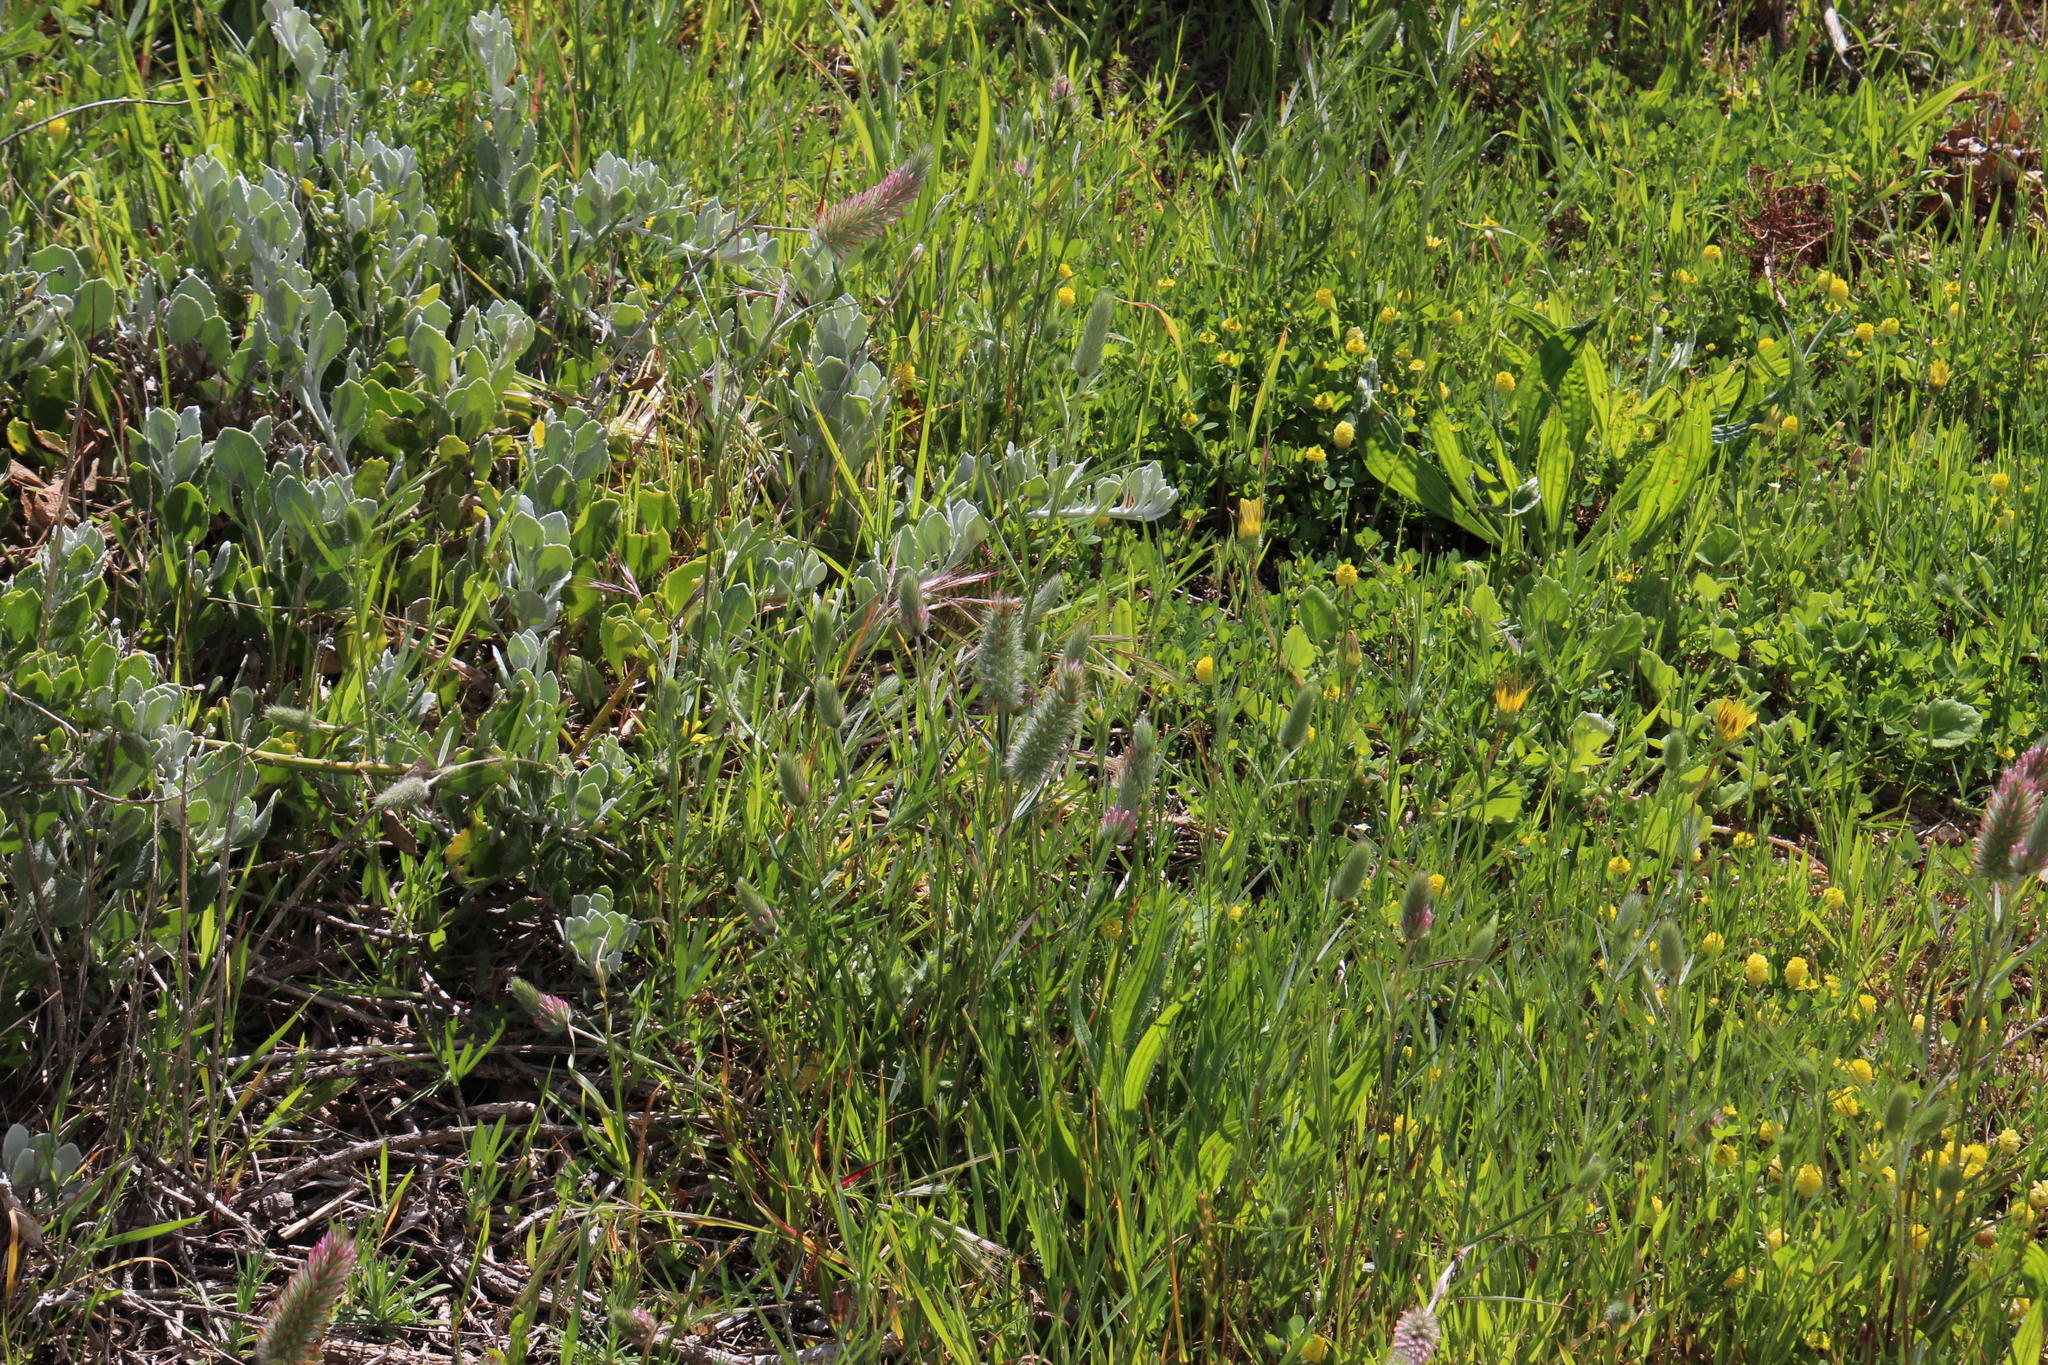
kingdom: Plantae
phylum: Tracheophyta
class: Magnoliopsida
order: Fabales
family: Fabaceae
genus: Trifolium
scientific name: Trifolium angustifolium
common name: Narrow clover
